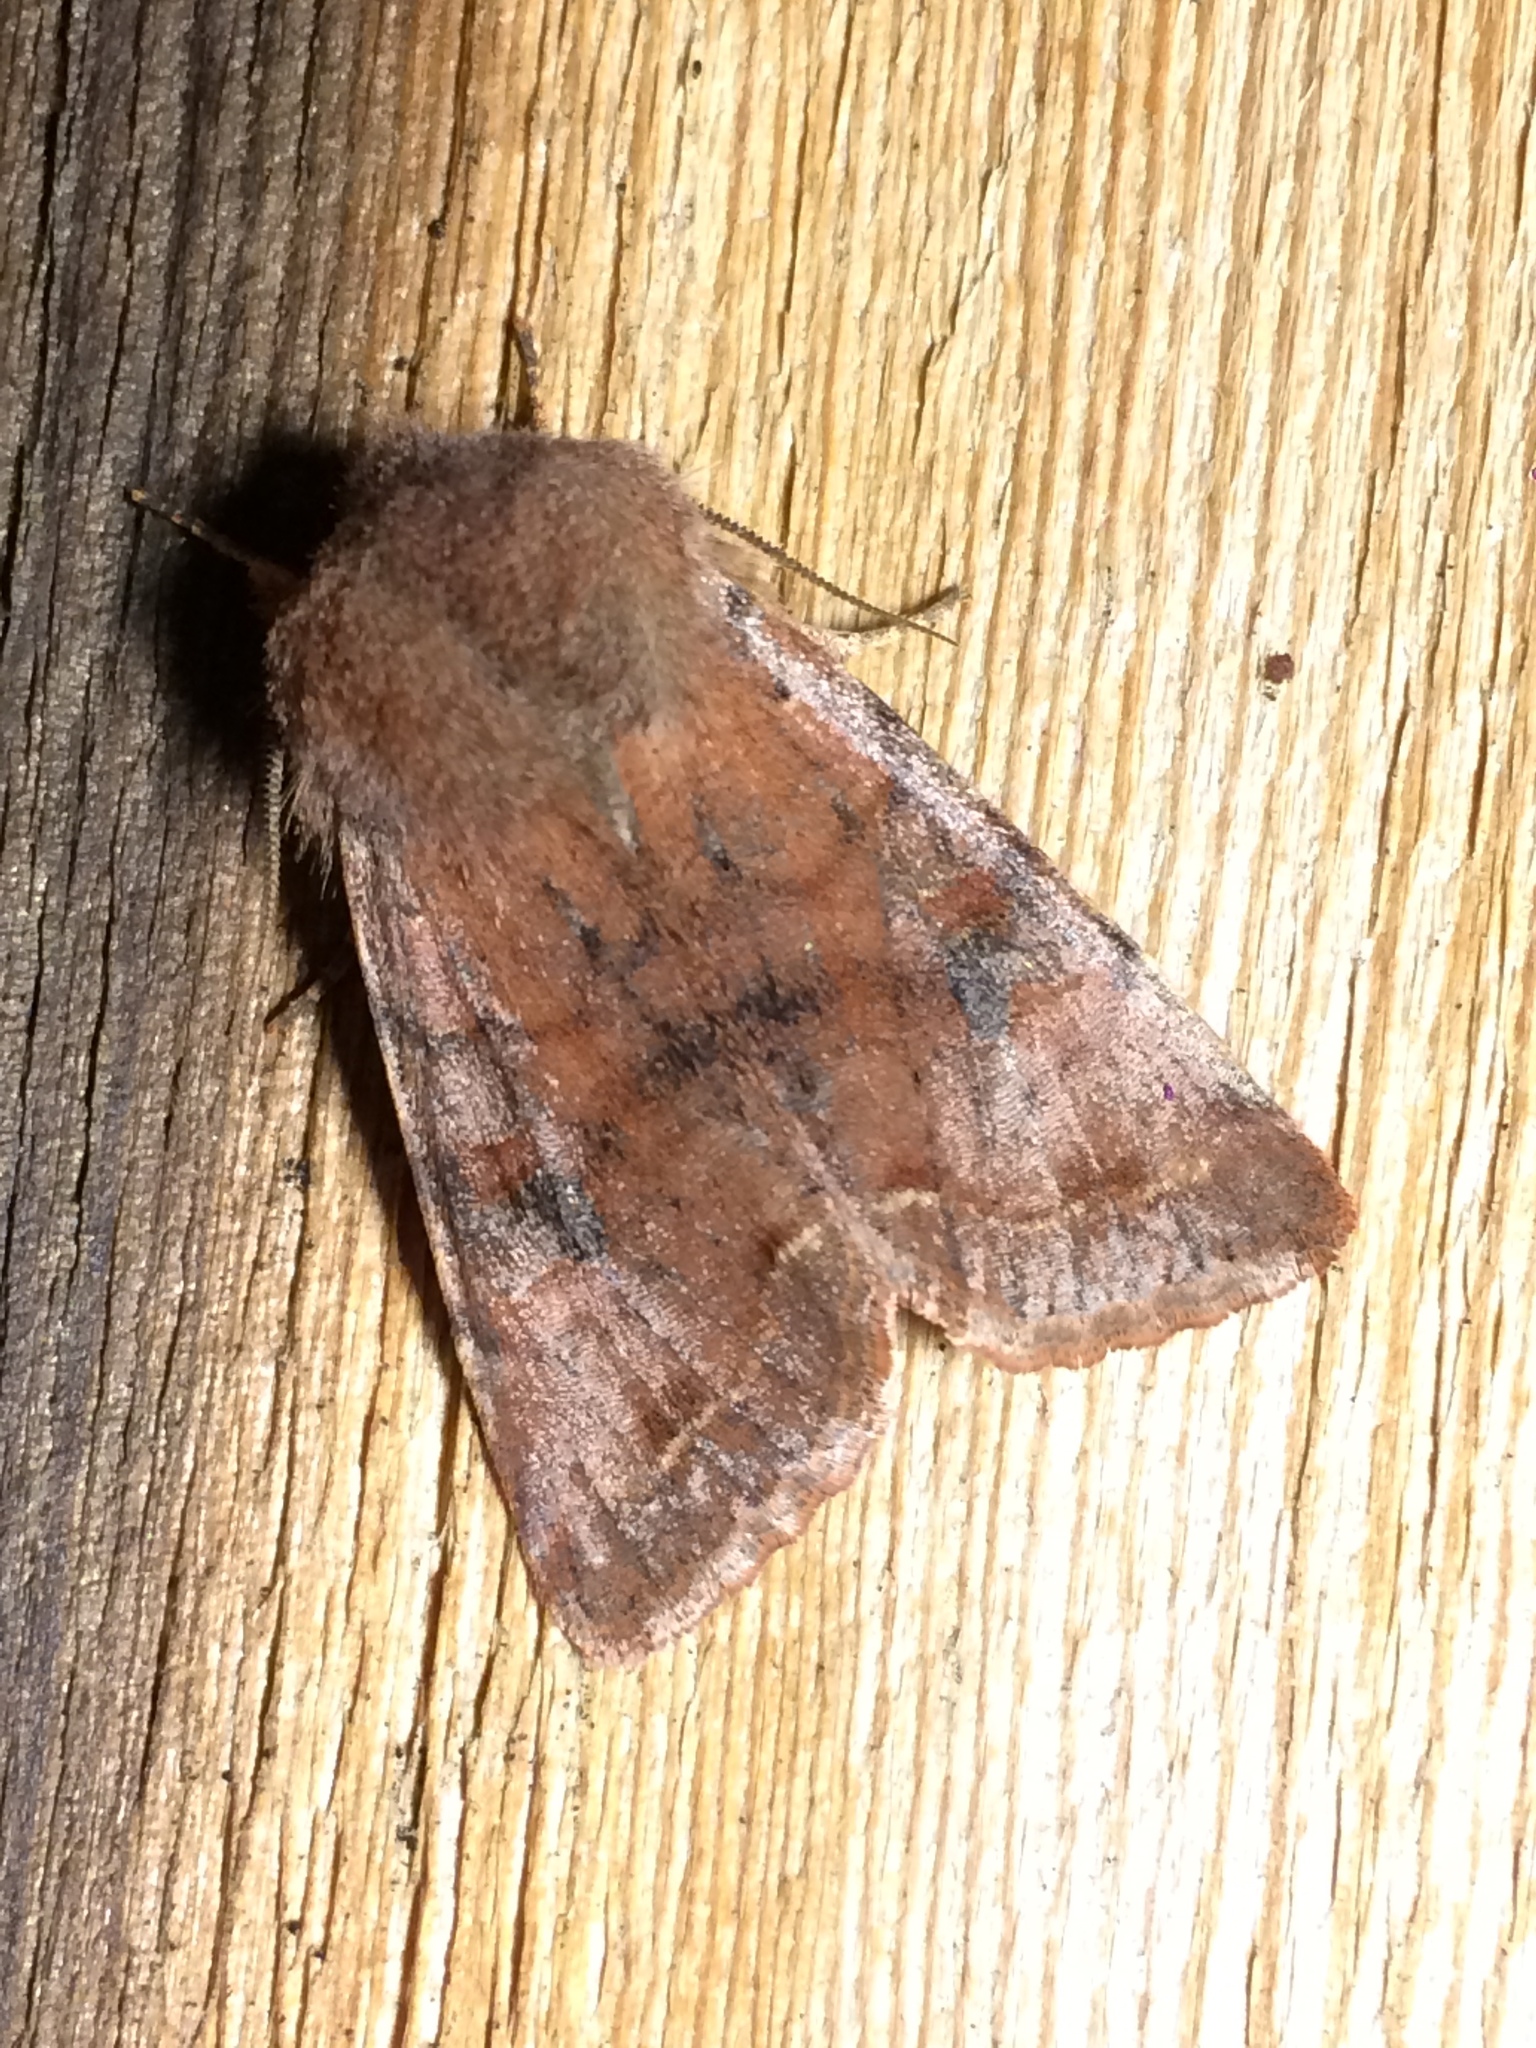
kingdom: Animalia
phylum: Arthropoda
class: Insecta
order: Lepidoptera
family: Noctuidae
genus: Orthosia
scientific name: Orthosia hibisci
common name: Green fruitworm
